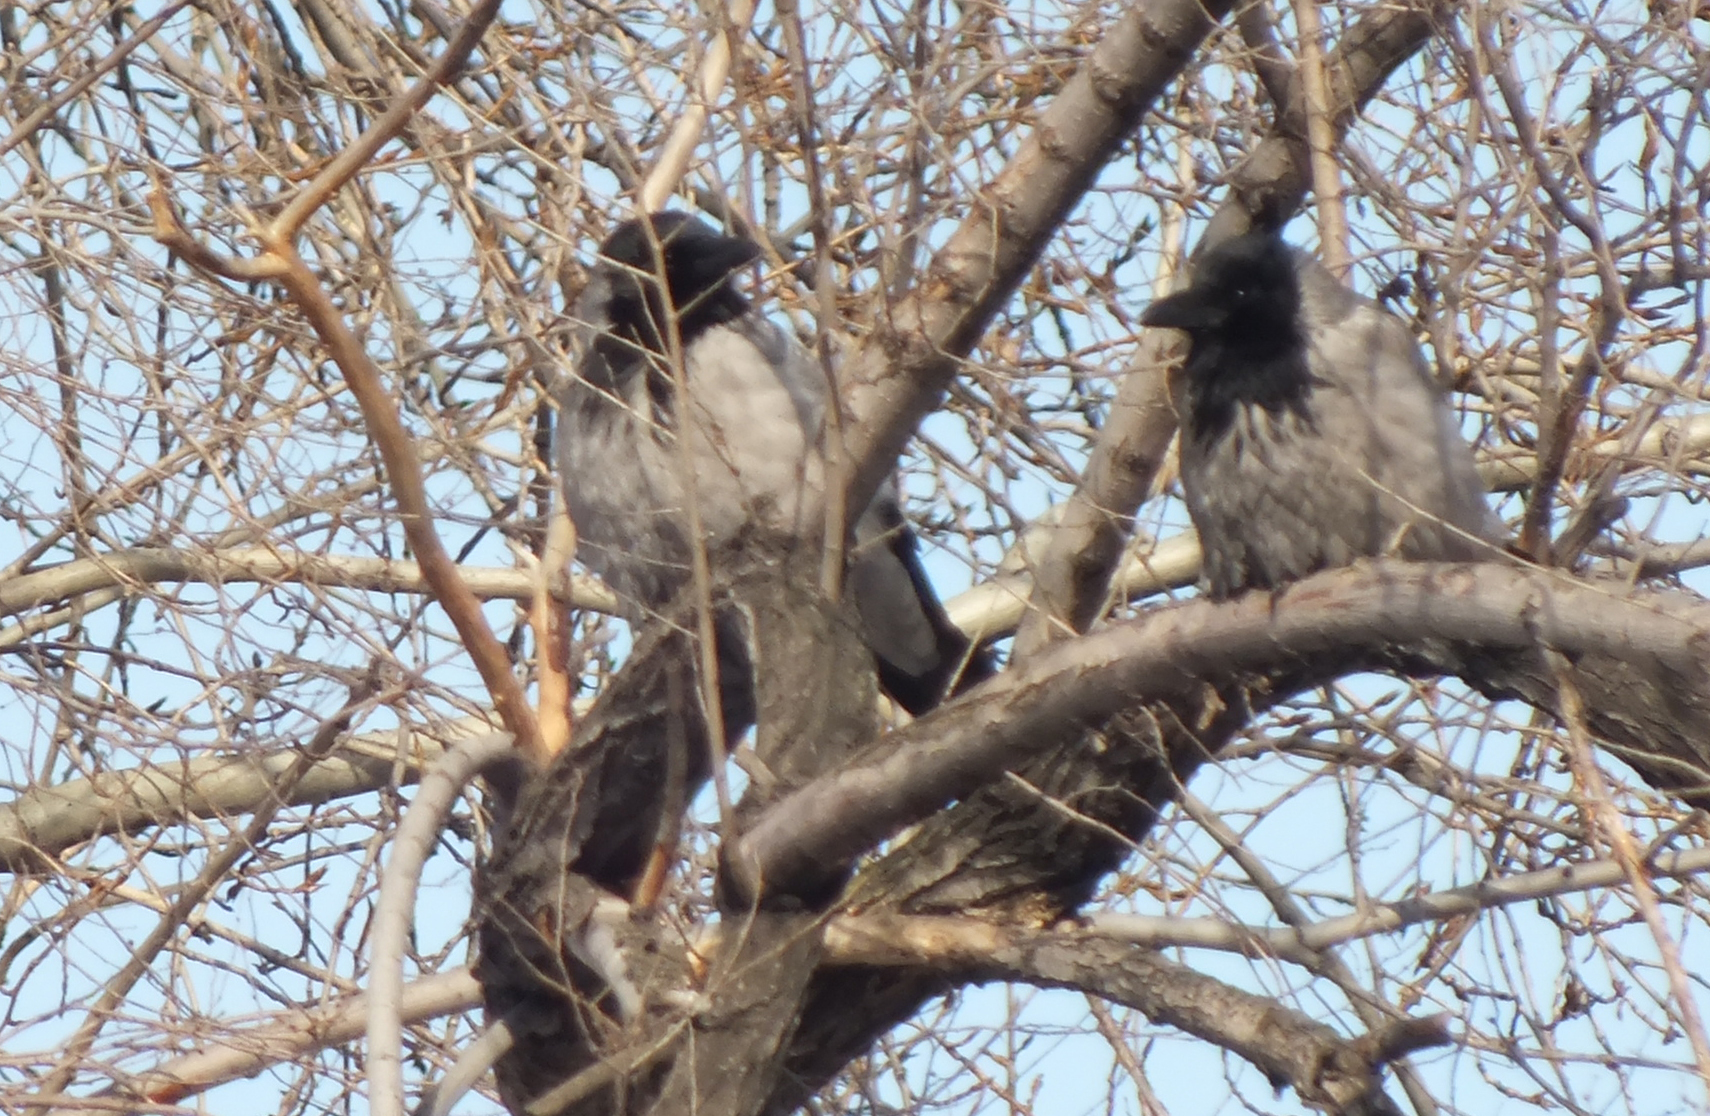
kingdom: Animalia
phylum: Chordata
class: Aves
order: Passeriformes
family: Corvidae
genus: Corvus
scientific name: Corvus cornix
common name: Hooded crow
